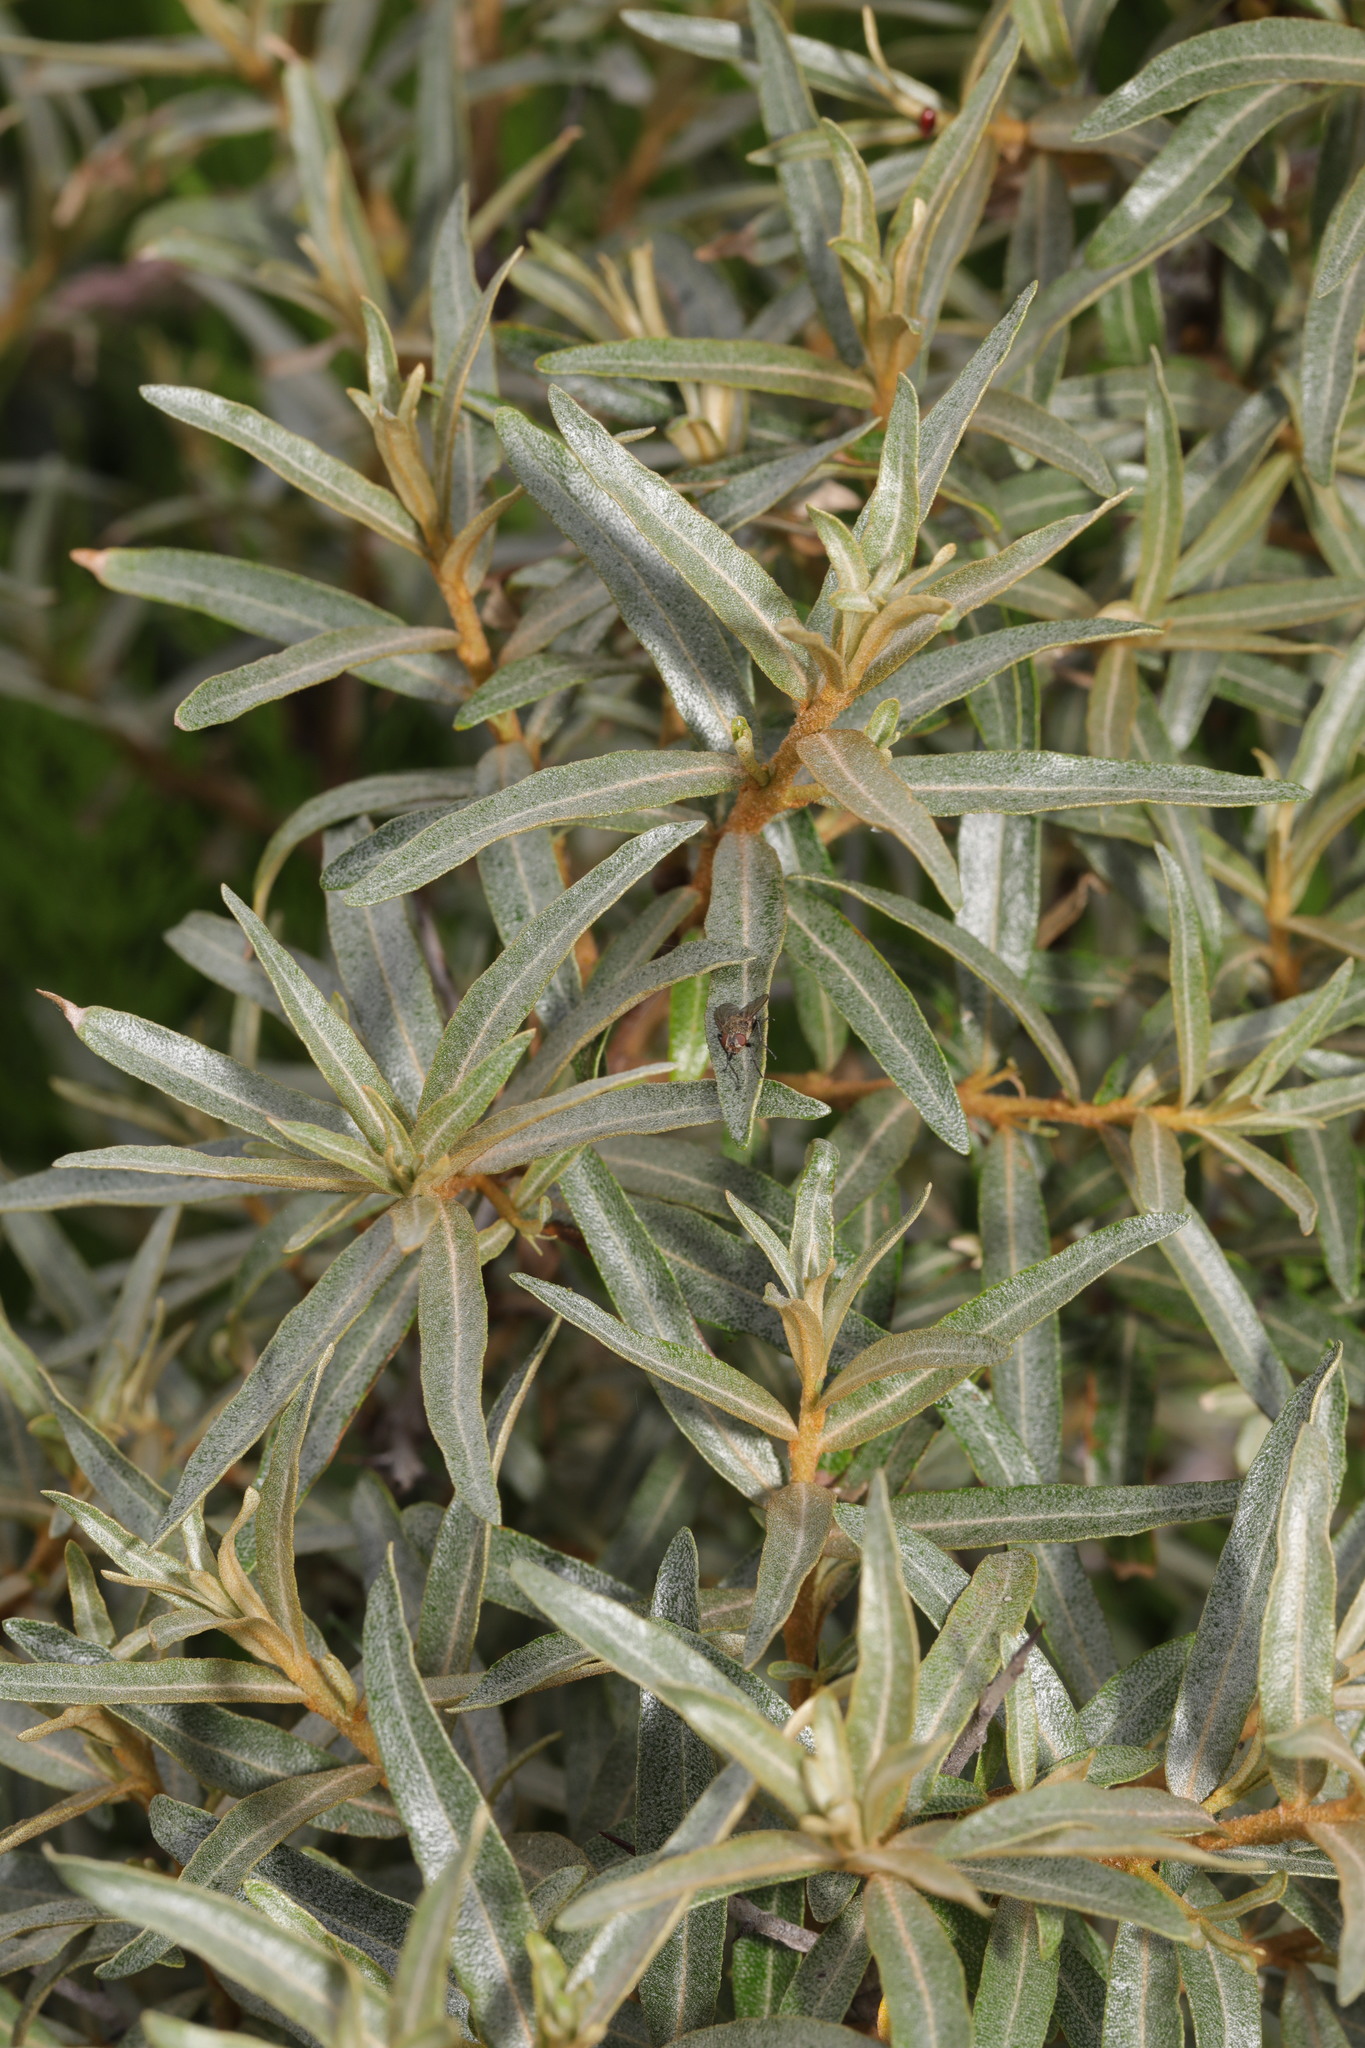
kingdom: Plantae
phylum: Tracheophyta
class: Magnoliopsida
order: Rosales
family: Elaeagnaceae
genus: Hippophae
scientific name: Hippophae rhamnoides
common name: Sea-buckthorn
